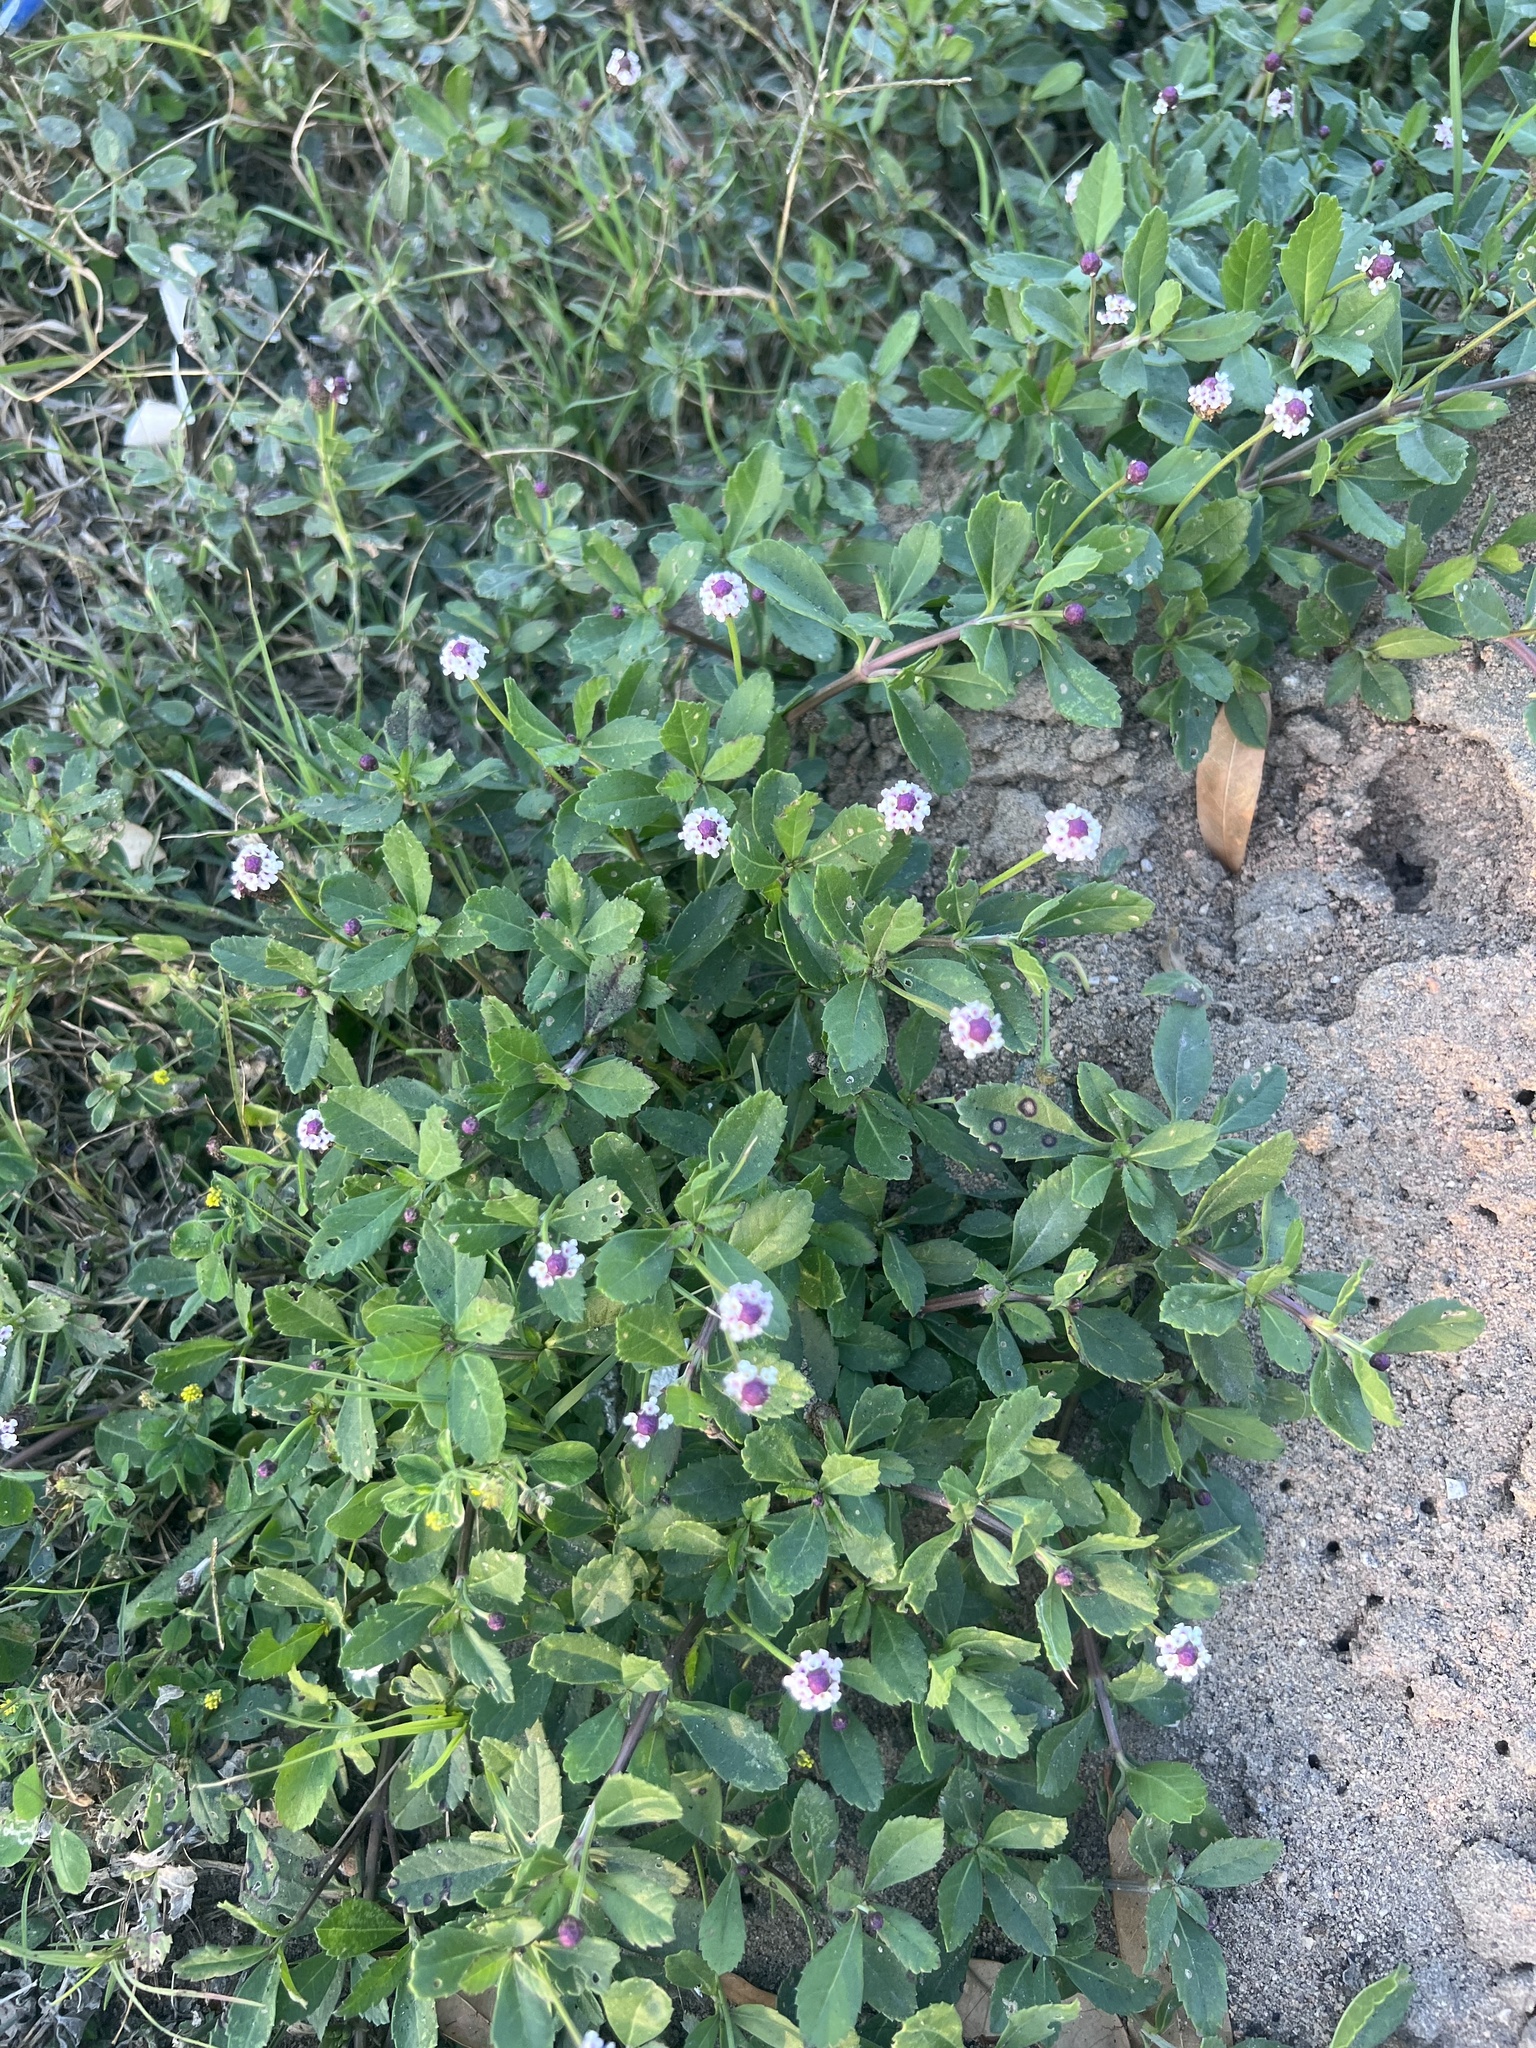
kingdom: Plantae
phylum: Tracheophyta
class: Magnoliopsida
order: Lamiales
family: Verbenaceae
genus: Phyla
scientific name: Phyla nodiflora
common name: Frogfruit
